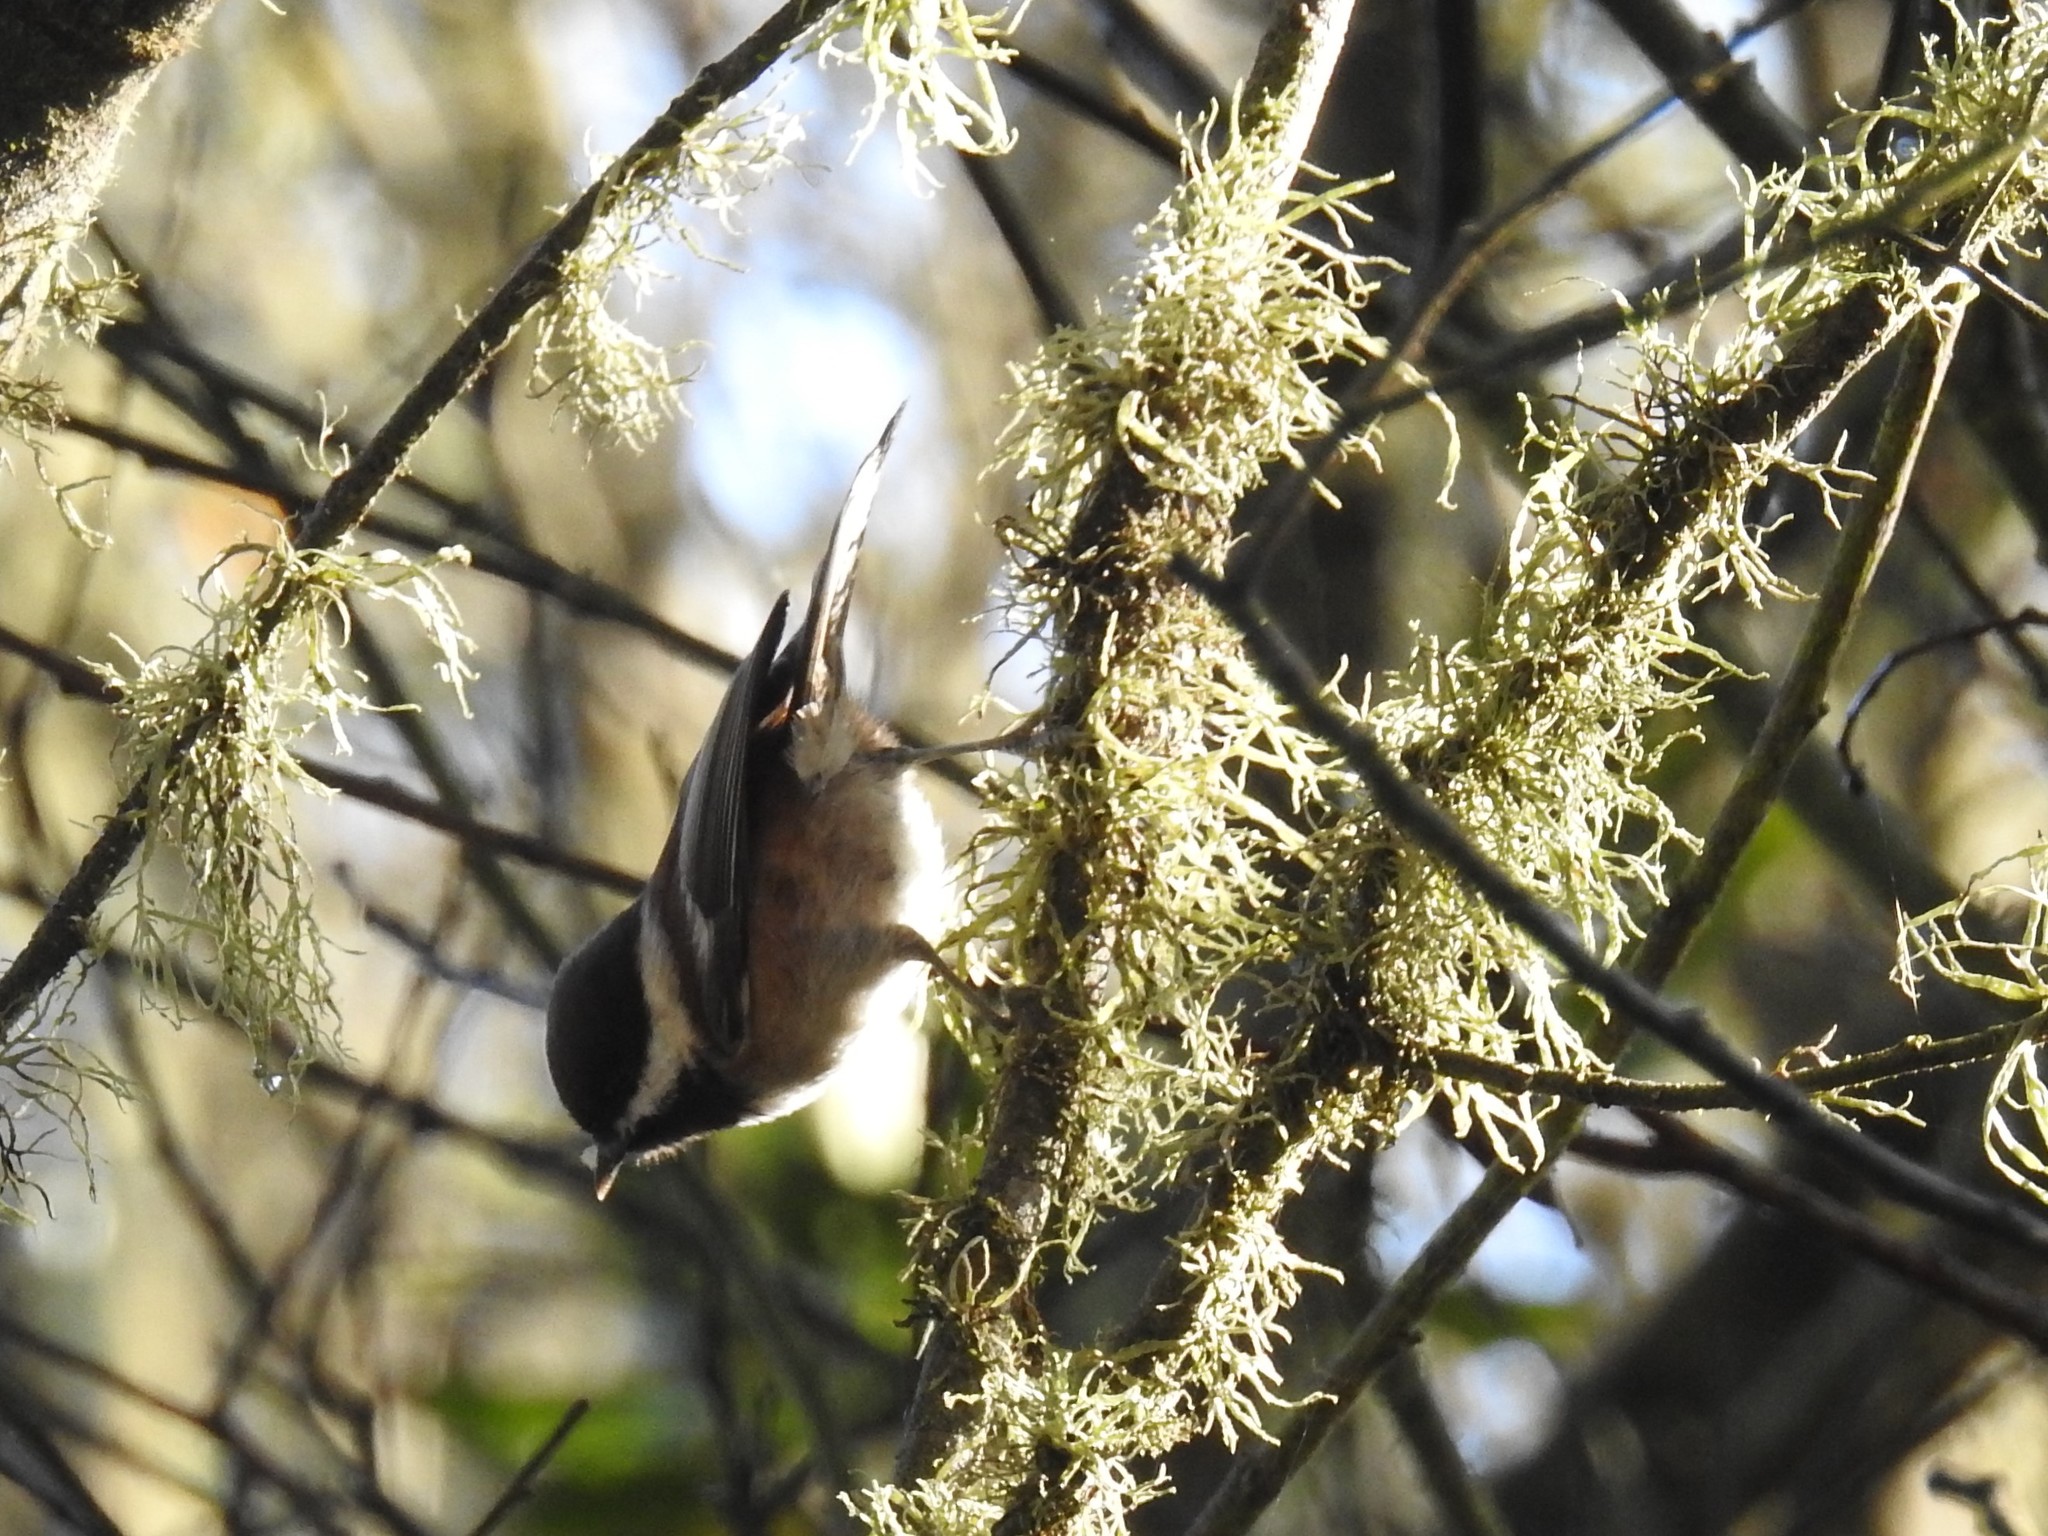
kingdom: Animalia
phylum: Chordata
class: Aves
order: Passeriformes
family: Paridae
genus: Poecile
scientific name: Poecile rufescens
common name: Chestnut-backed chickadee
